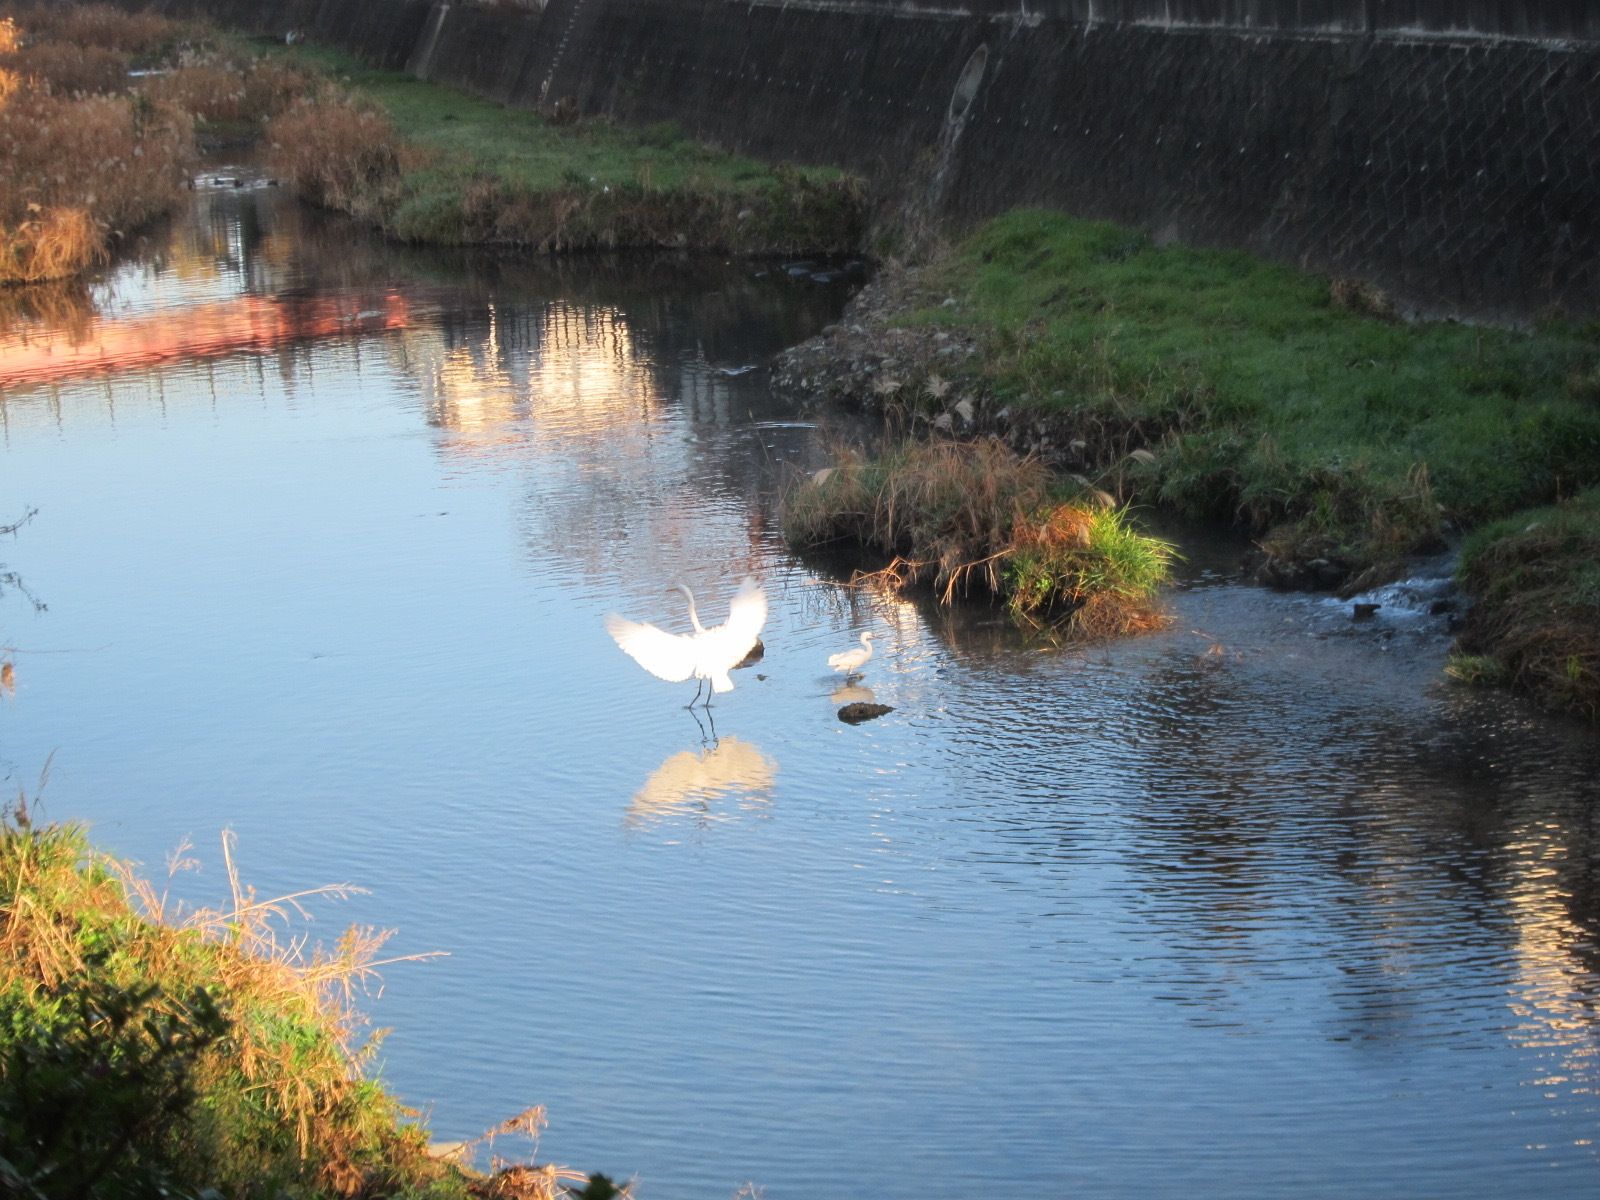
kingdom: Animalia
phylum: Chordata
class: Aves
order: Pelecaniformes
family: Ardeidae
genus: Ardea
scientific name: Ardea modesta
